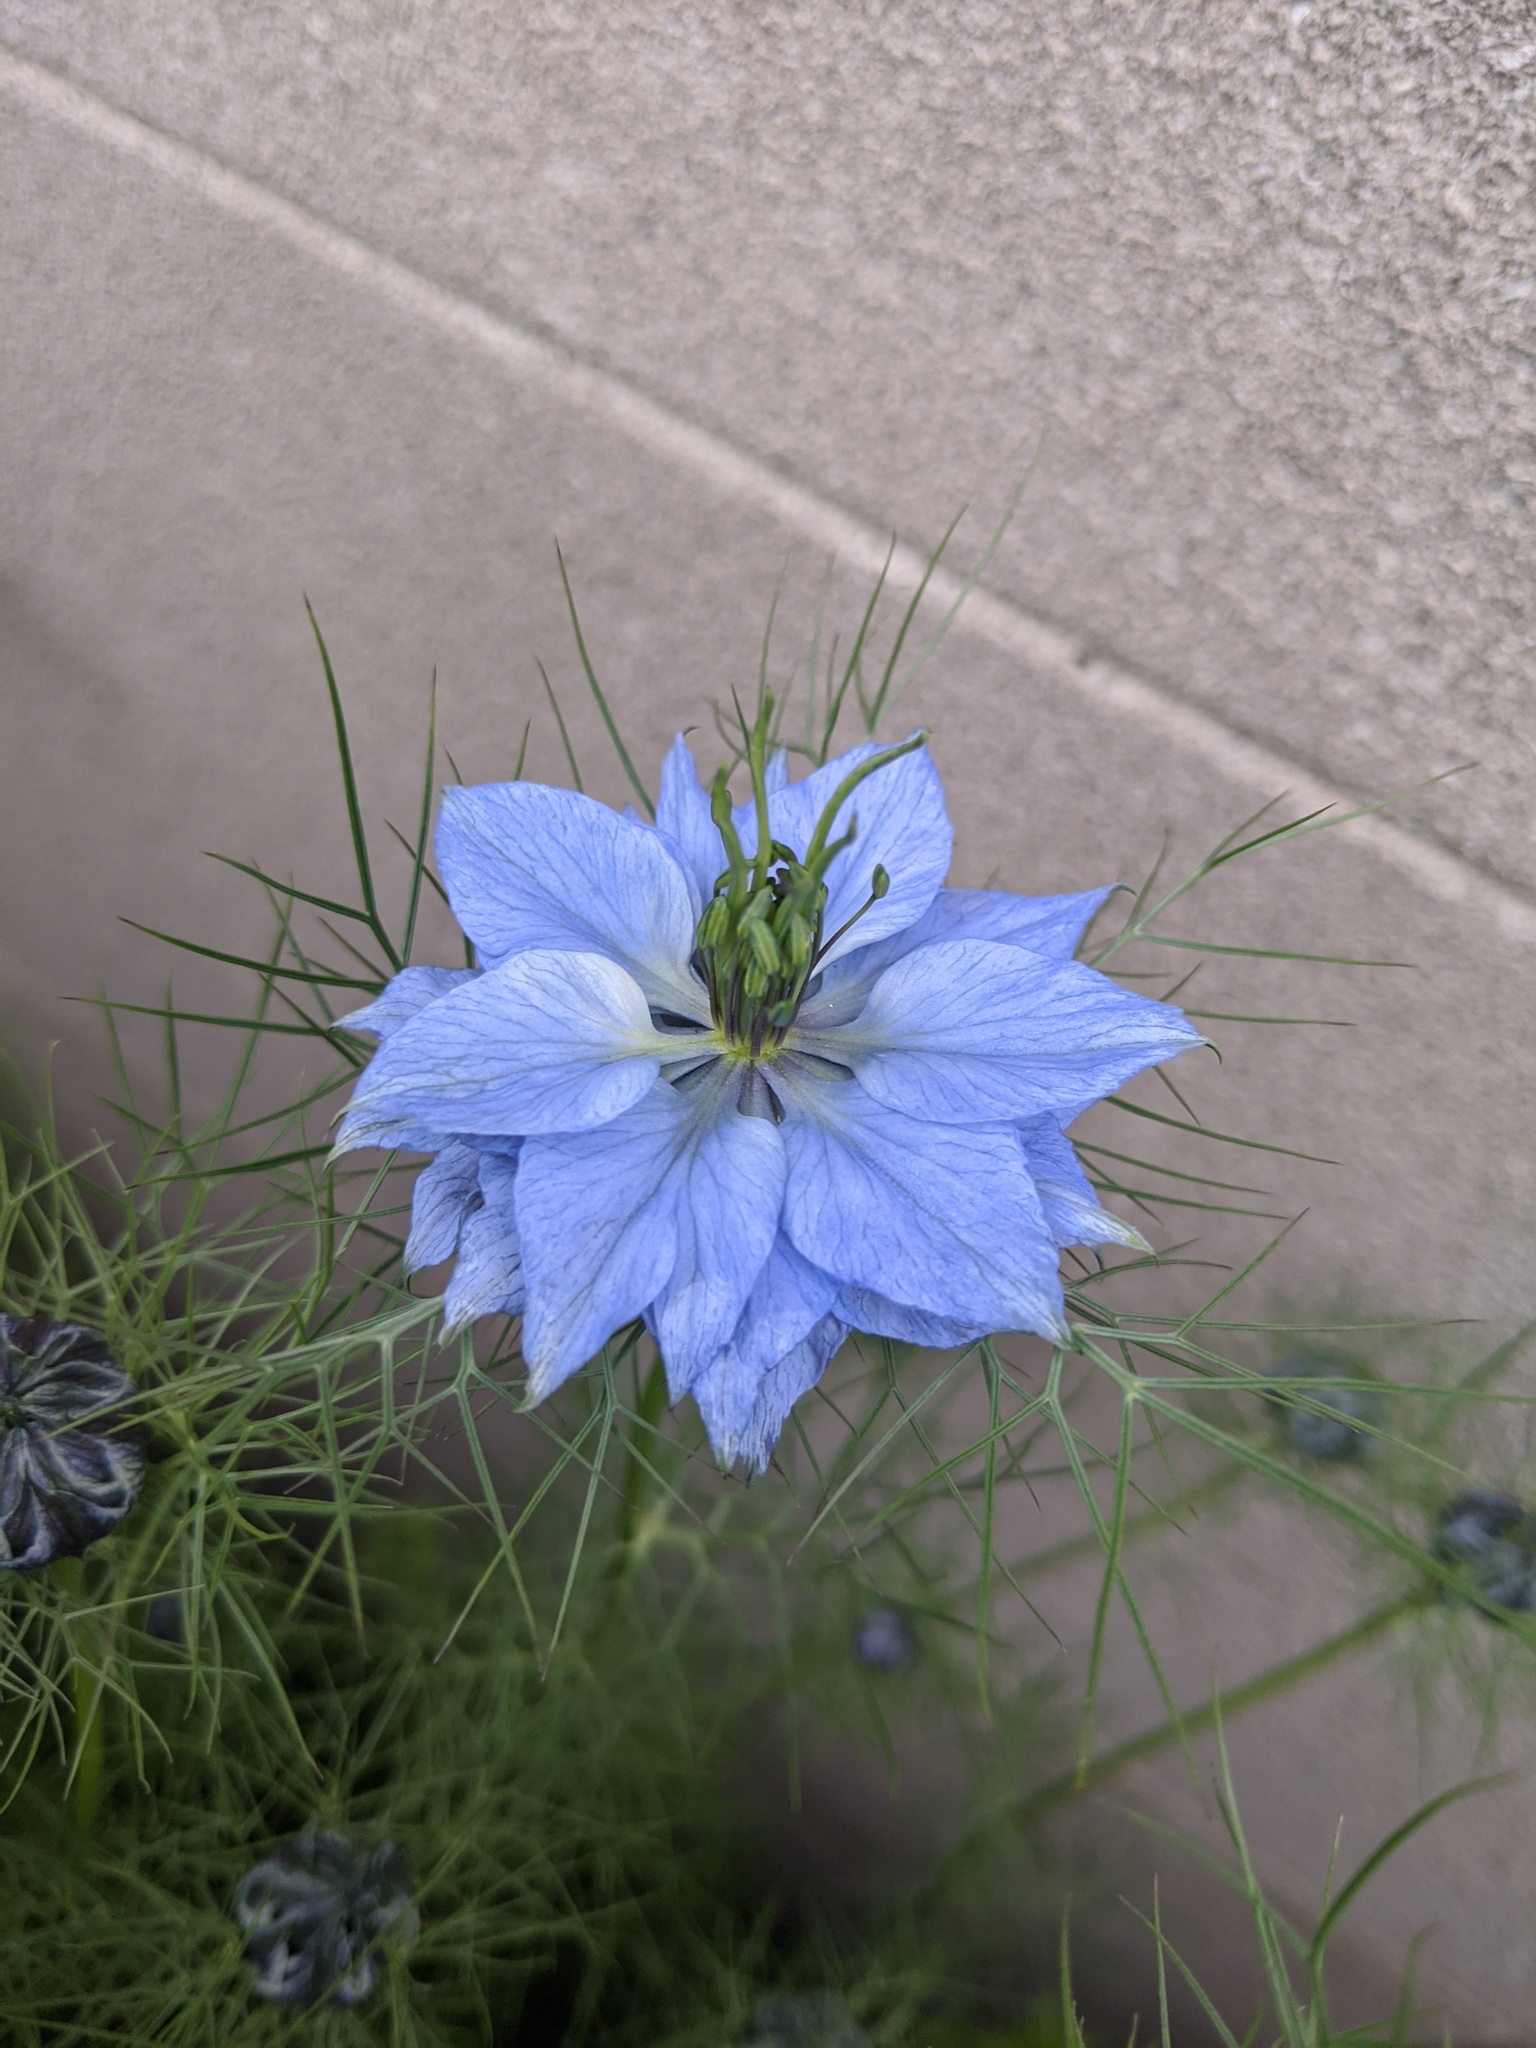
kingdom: Plantae
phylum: Tracheophyta
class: Magnoliopsida
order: Ranunculales
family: Ranunculaceae
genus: Nigella
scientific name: Nigella damascena
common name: Love-in-a-mist
